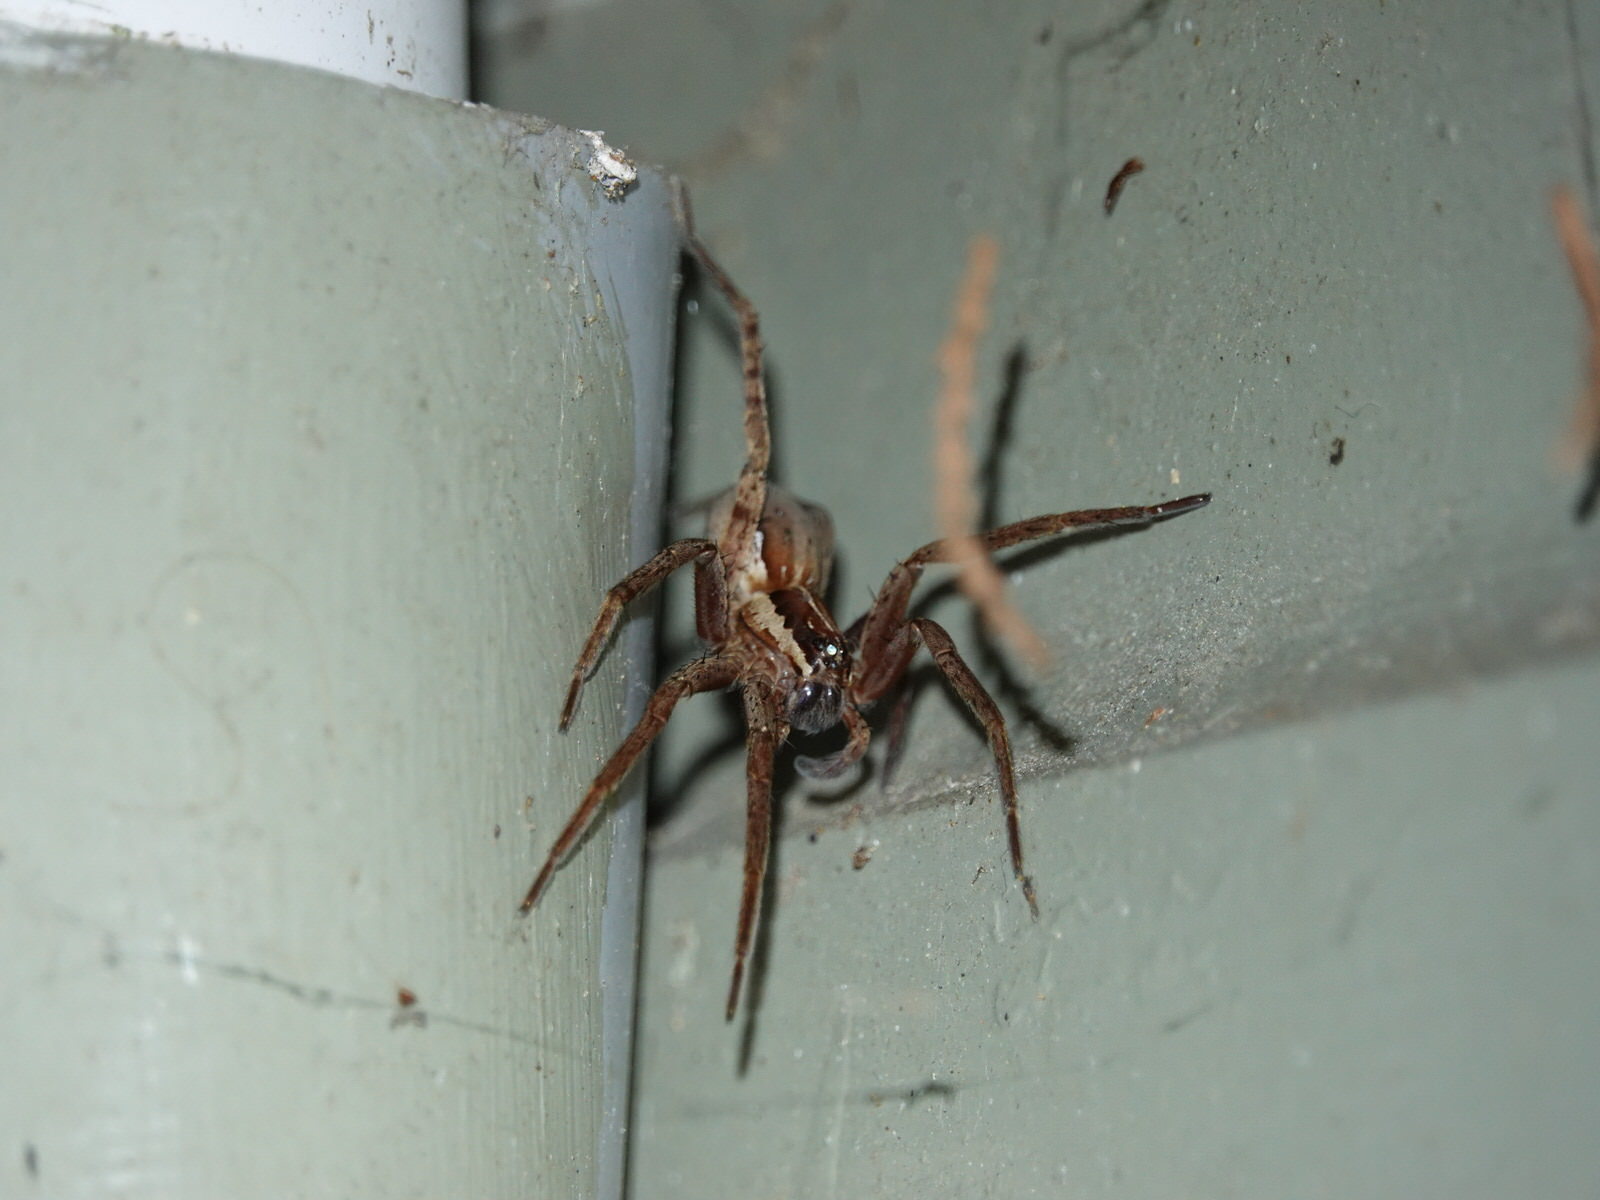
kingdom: Animalia
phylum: Arthropoda
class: Arachnida
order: Araneae
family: Pisauridae
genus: Dolomedes
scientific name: Dolomedes minor
